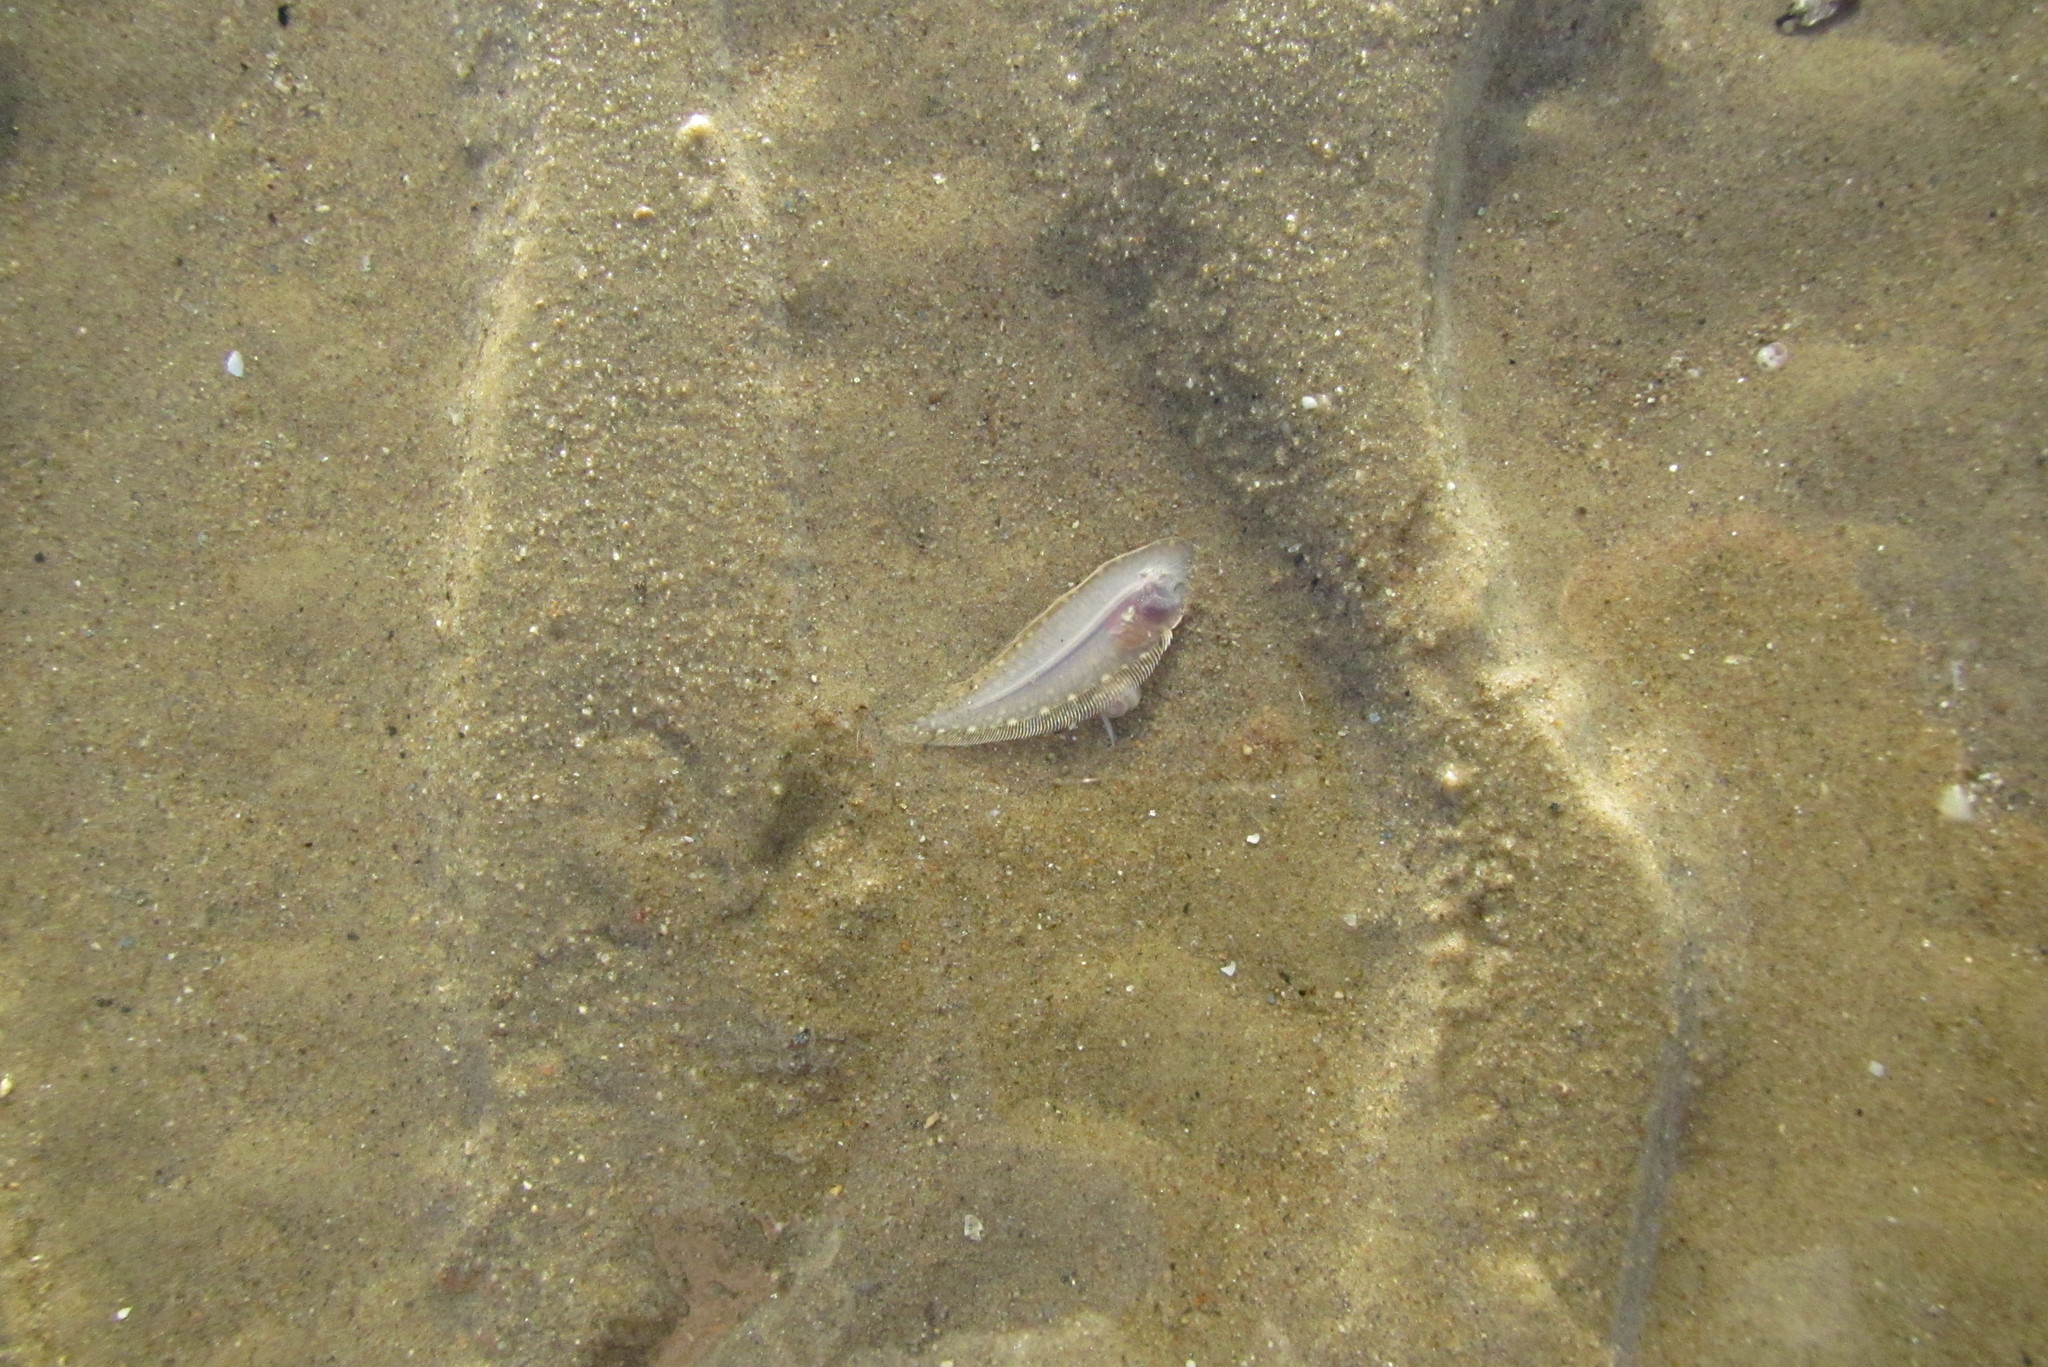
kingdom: Animalia
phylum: Chordata
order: Pleuronectiformes
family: Cynoglossidae
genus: Paraplagusia
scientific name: Paraplagusia guttata
